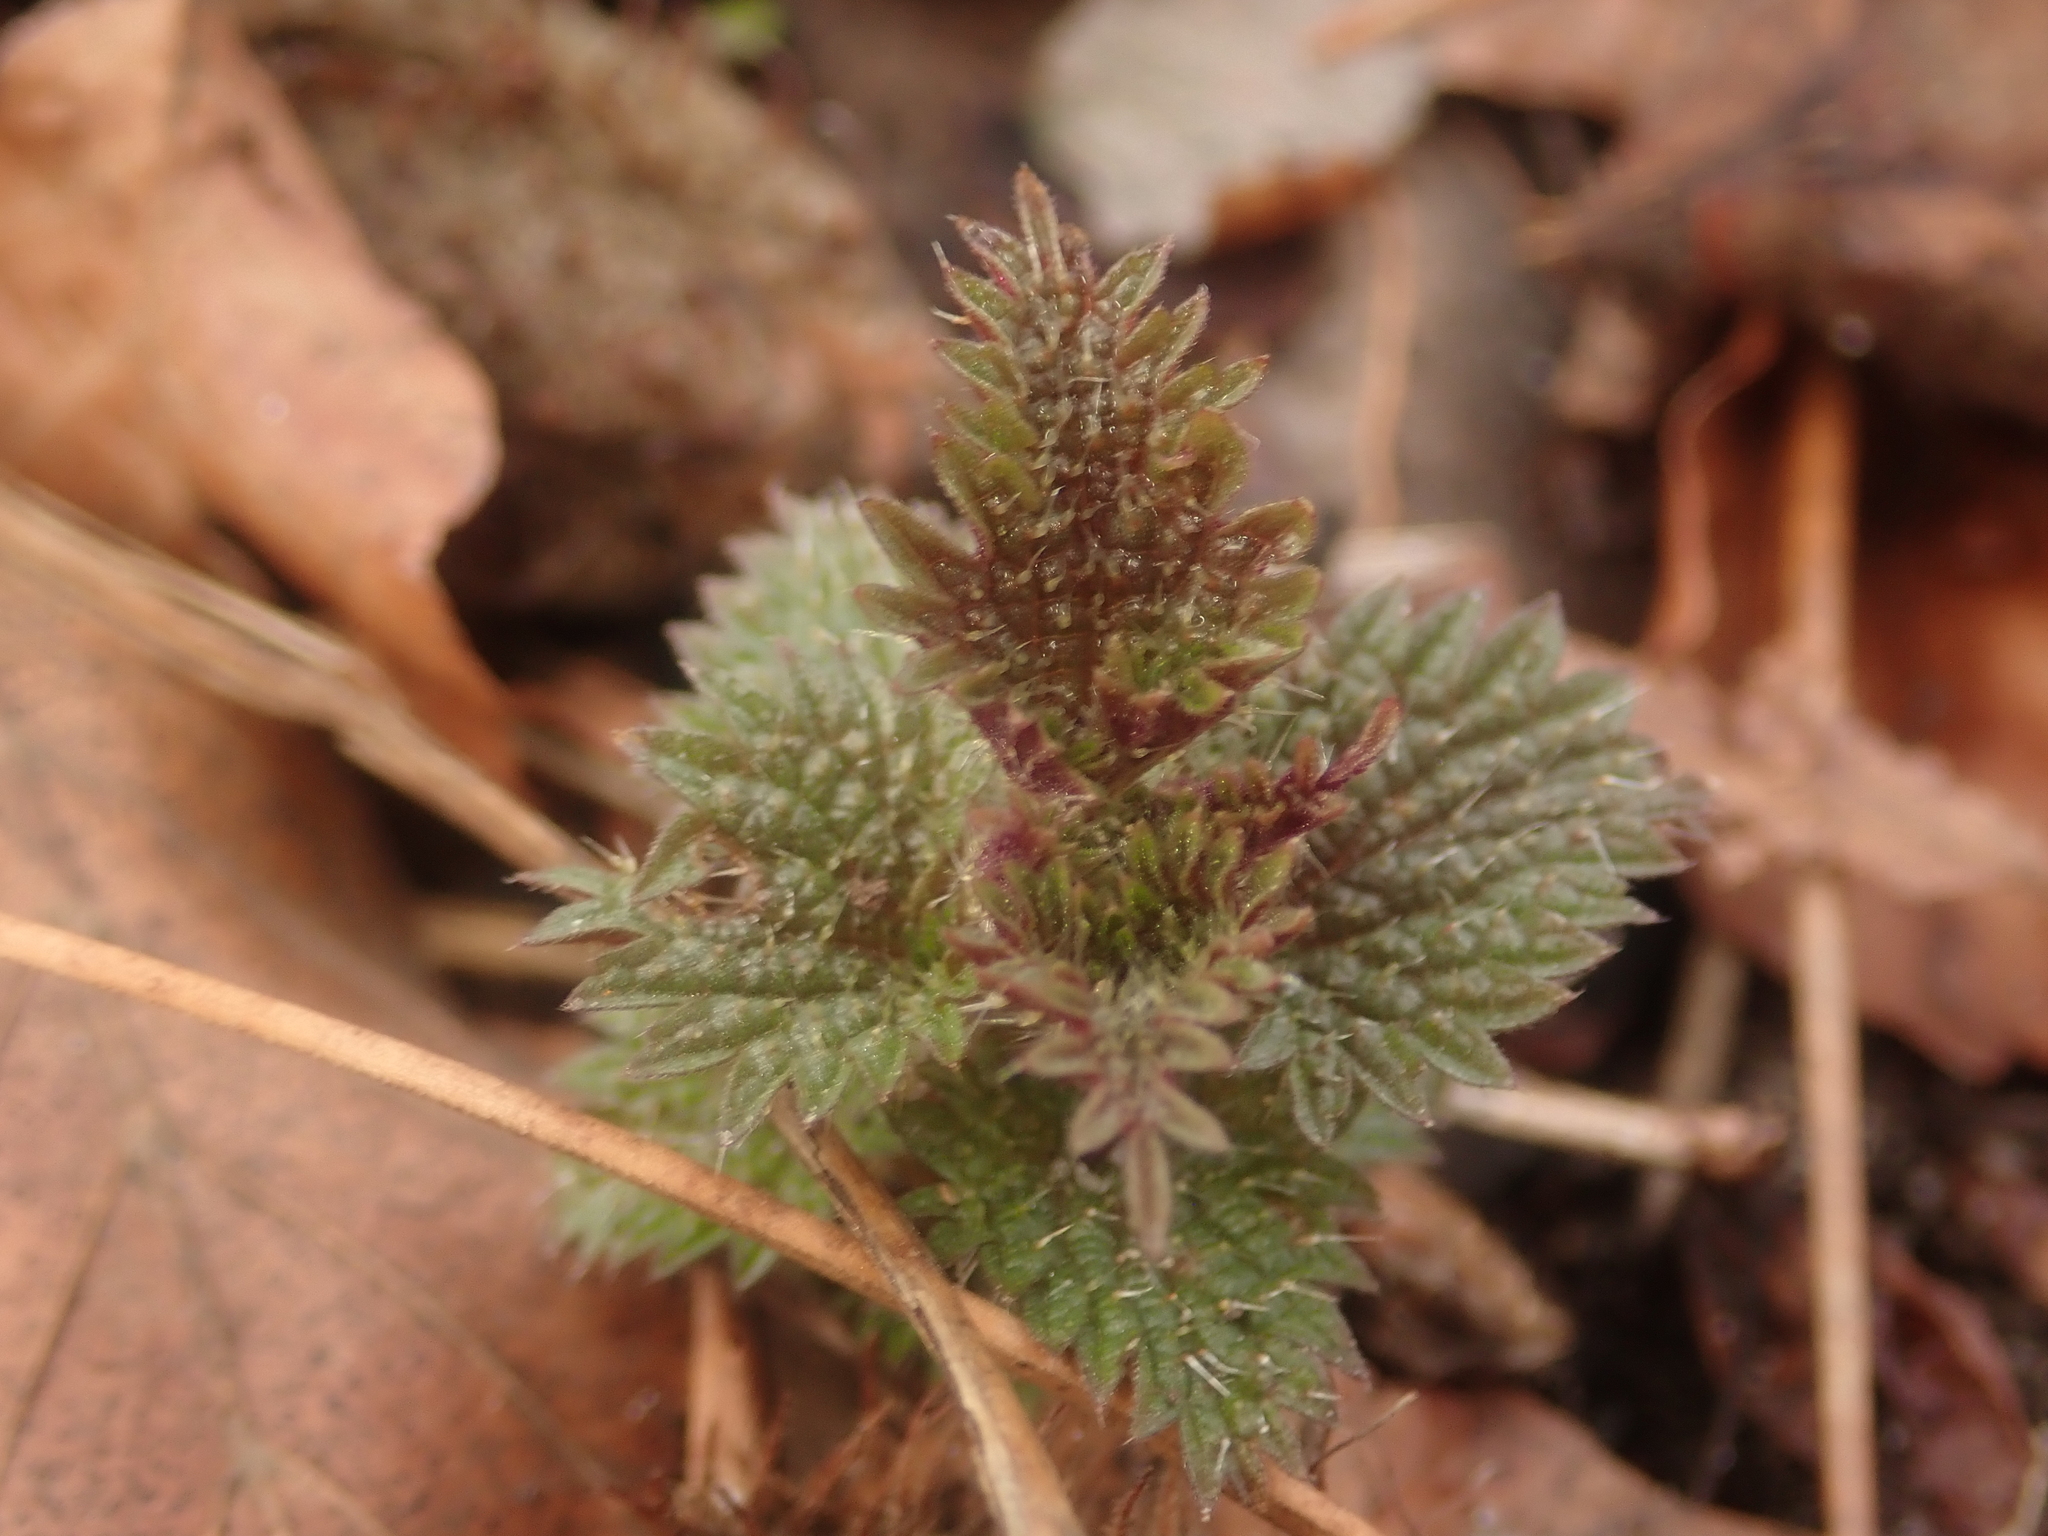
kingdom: Plantae
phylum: Tracheophyta
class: Magnoliopsida
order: Rosales
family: Urticaceae
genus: Urtica
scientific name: Urtica dioica
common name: Common nettle
